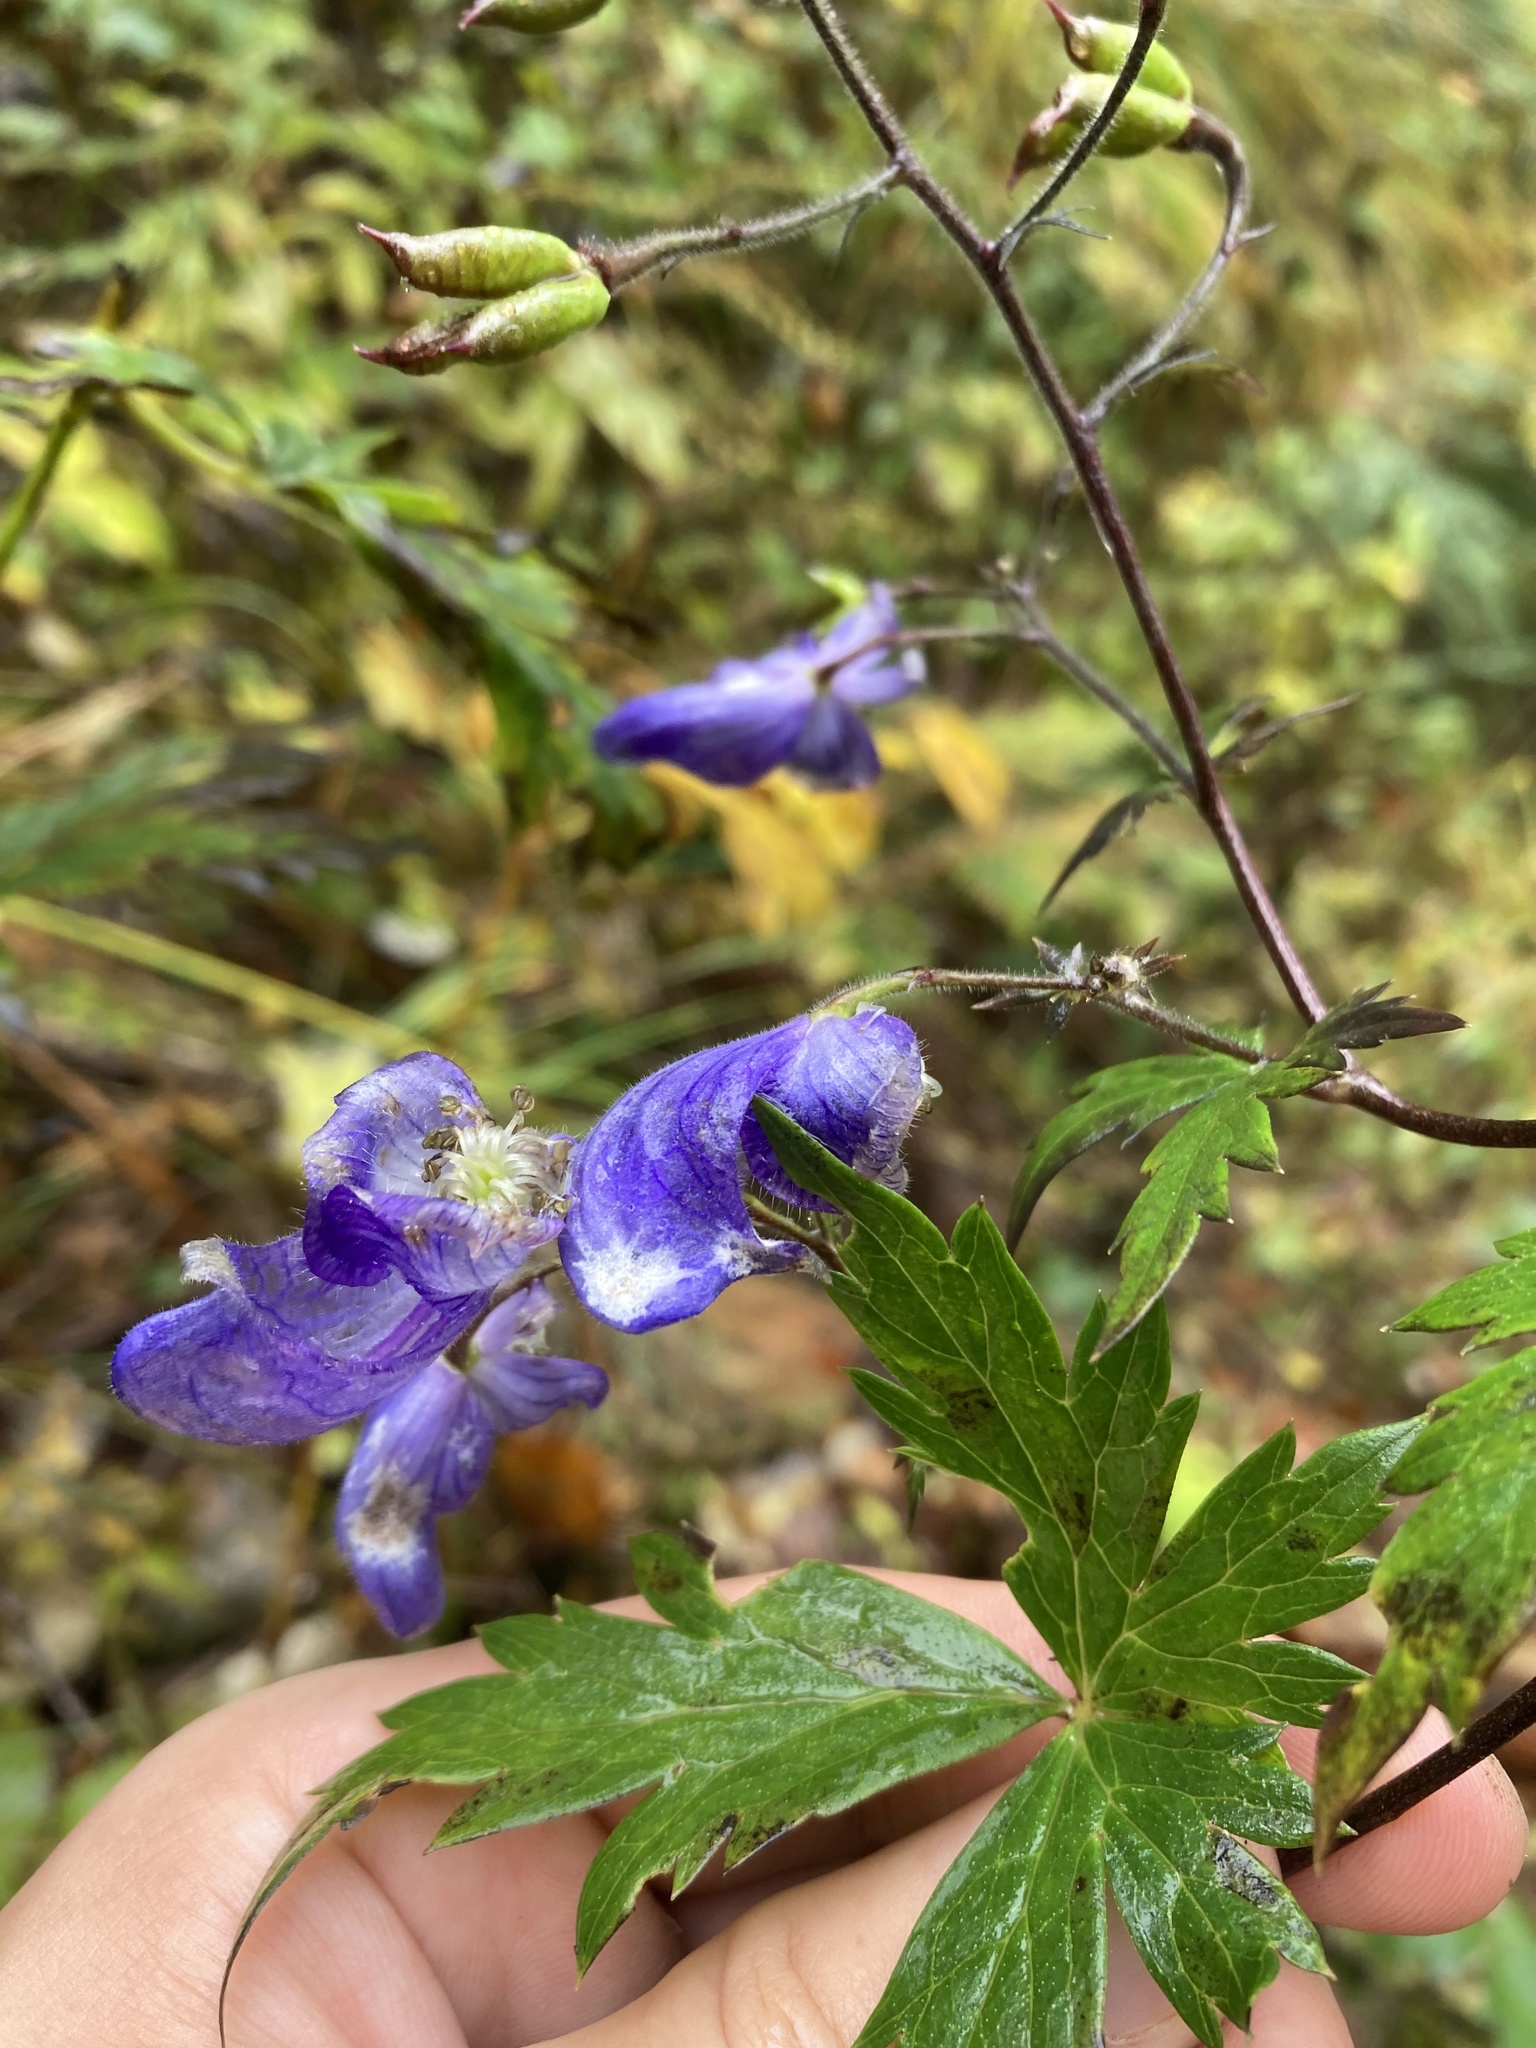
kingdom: Plantae
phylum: Tracheophyta
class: Magnoliopsida
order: Ranunculales
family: Ranunculaceae
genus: Aconitum
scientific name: Aconitum degenii
